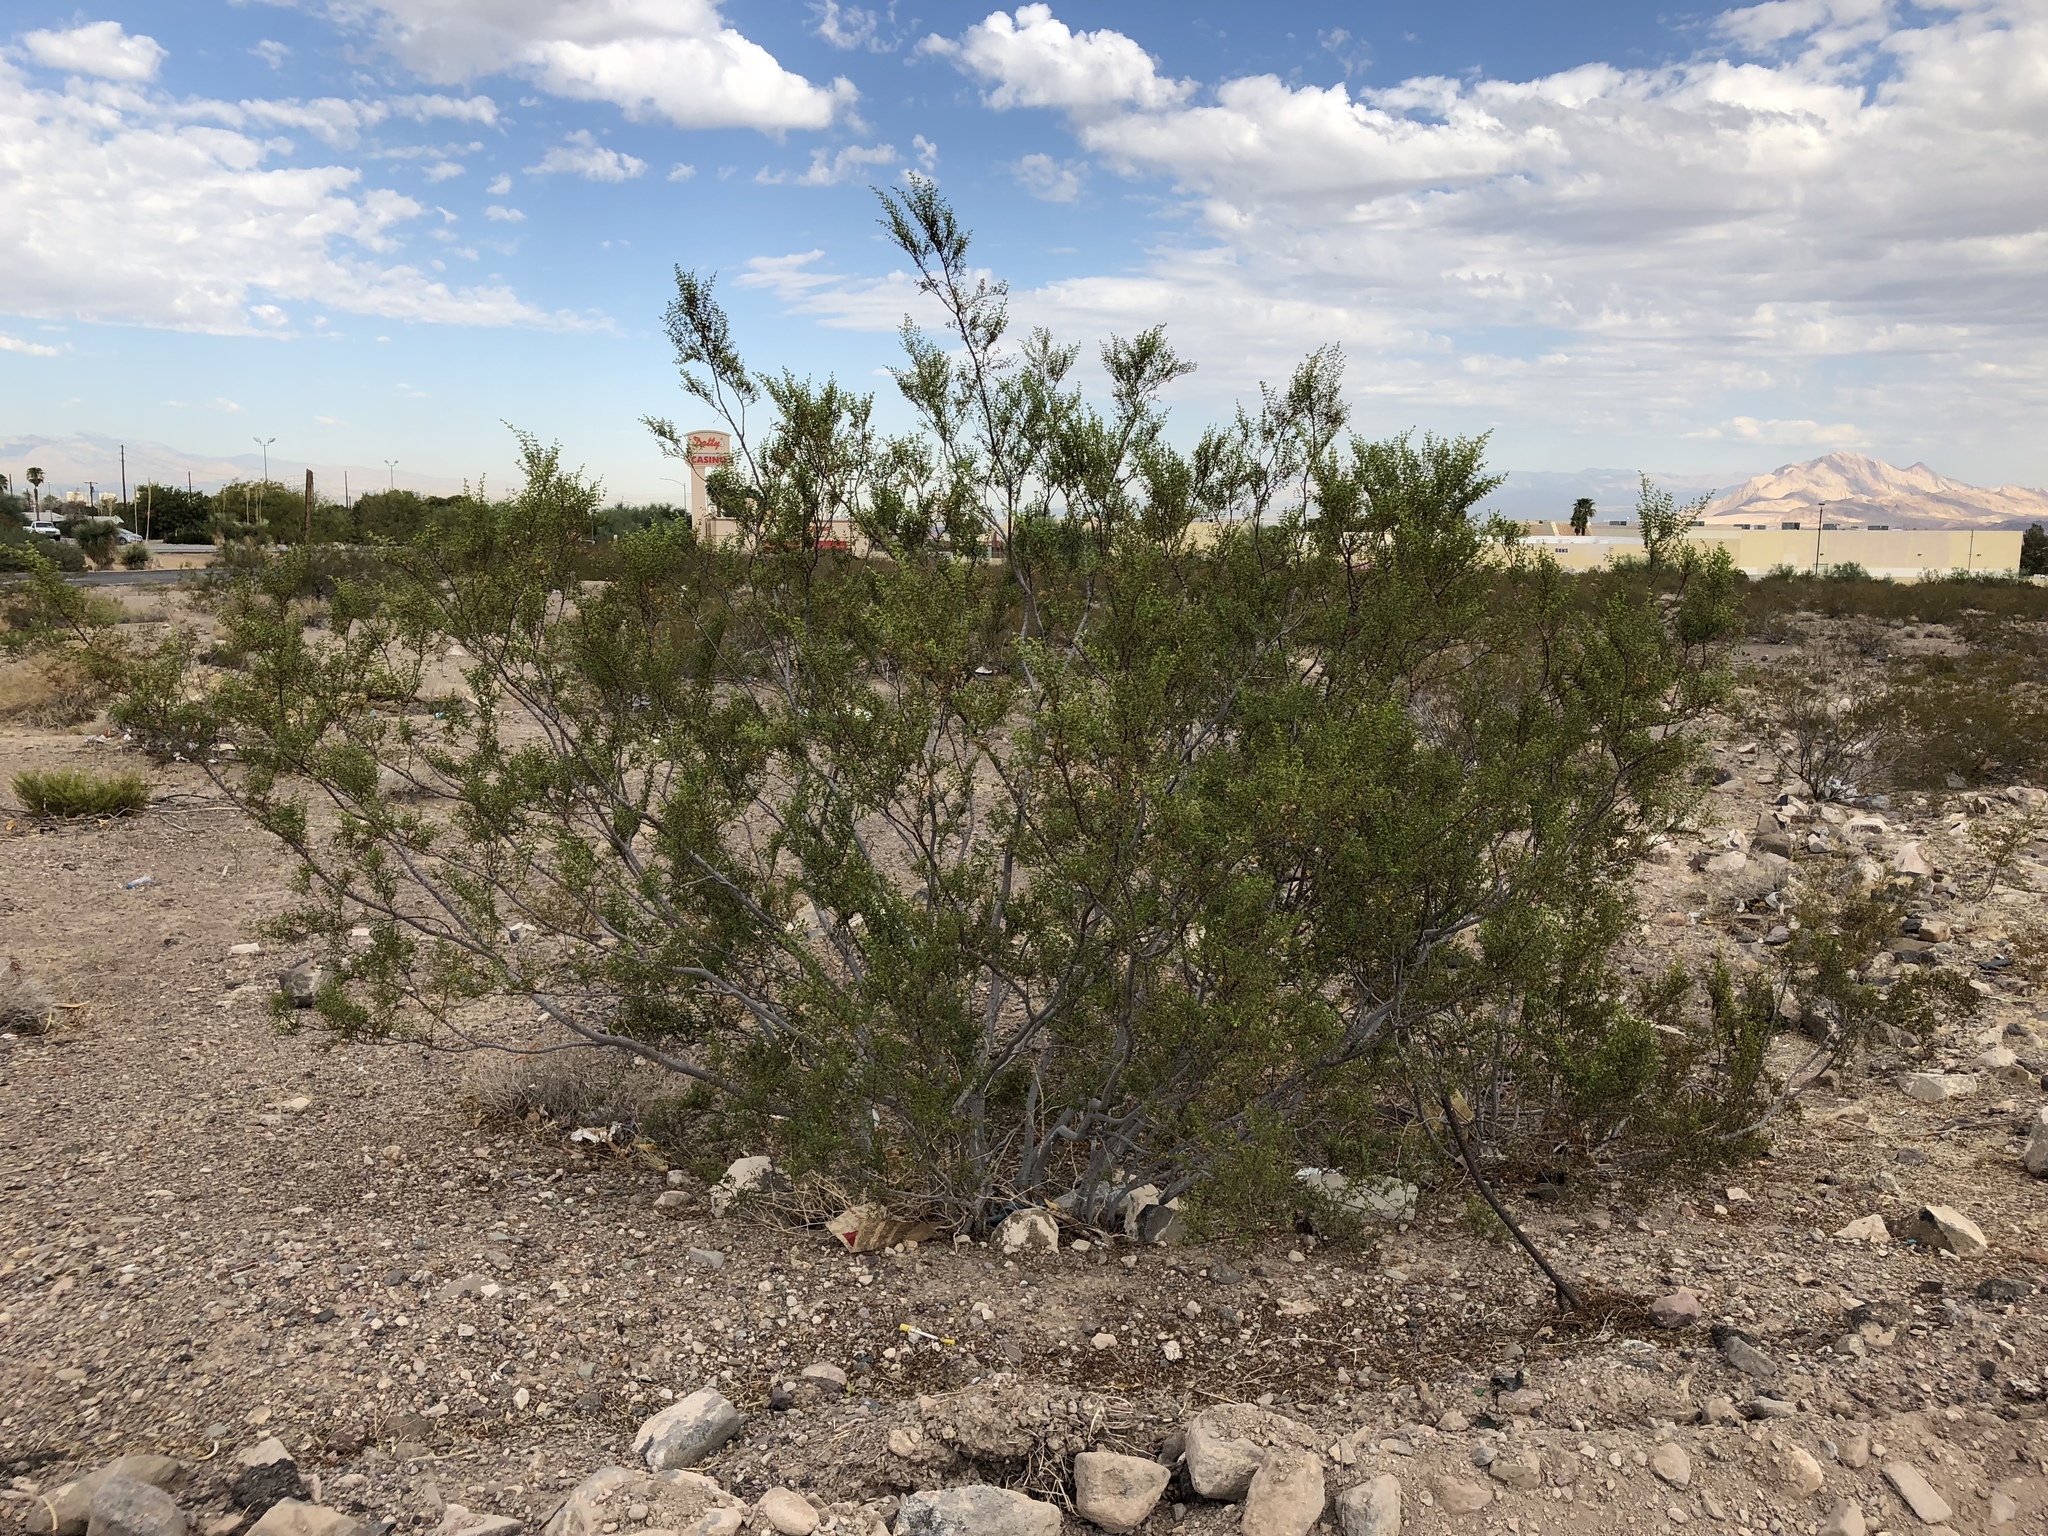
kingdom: Plantae
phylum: Tracheophyta
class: Magnoliopsida
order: Zygophyllales
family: Zygophyllaceae
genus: Larrea
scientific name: Larrea tridentata
